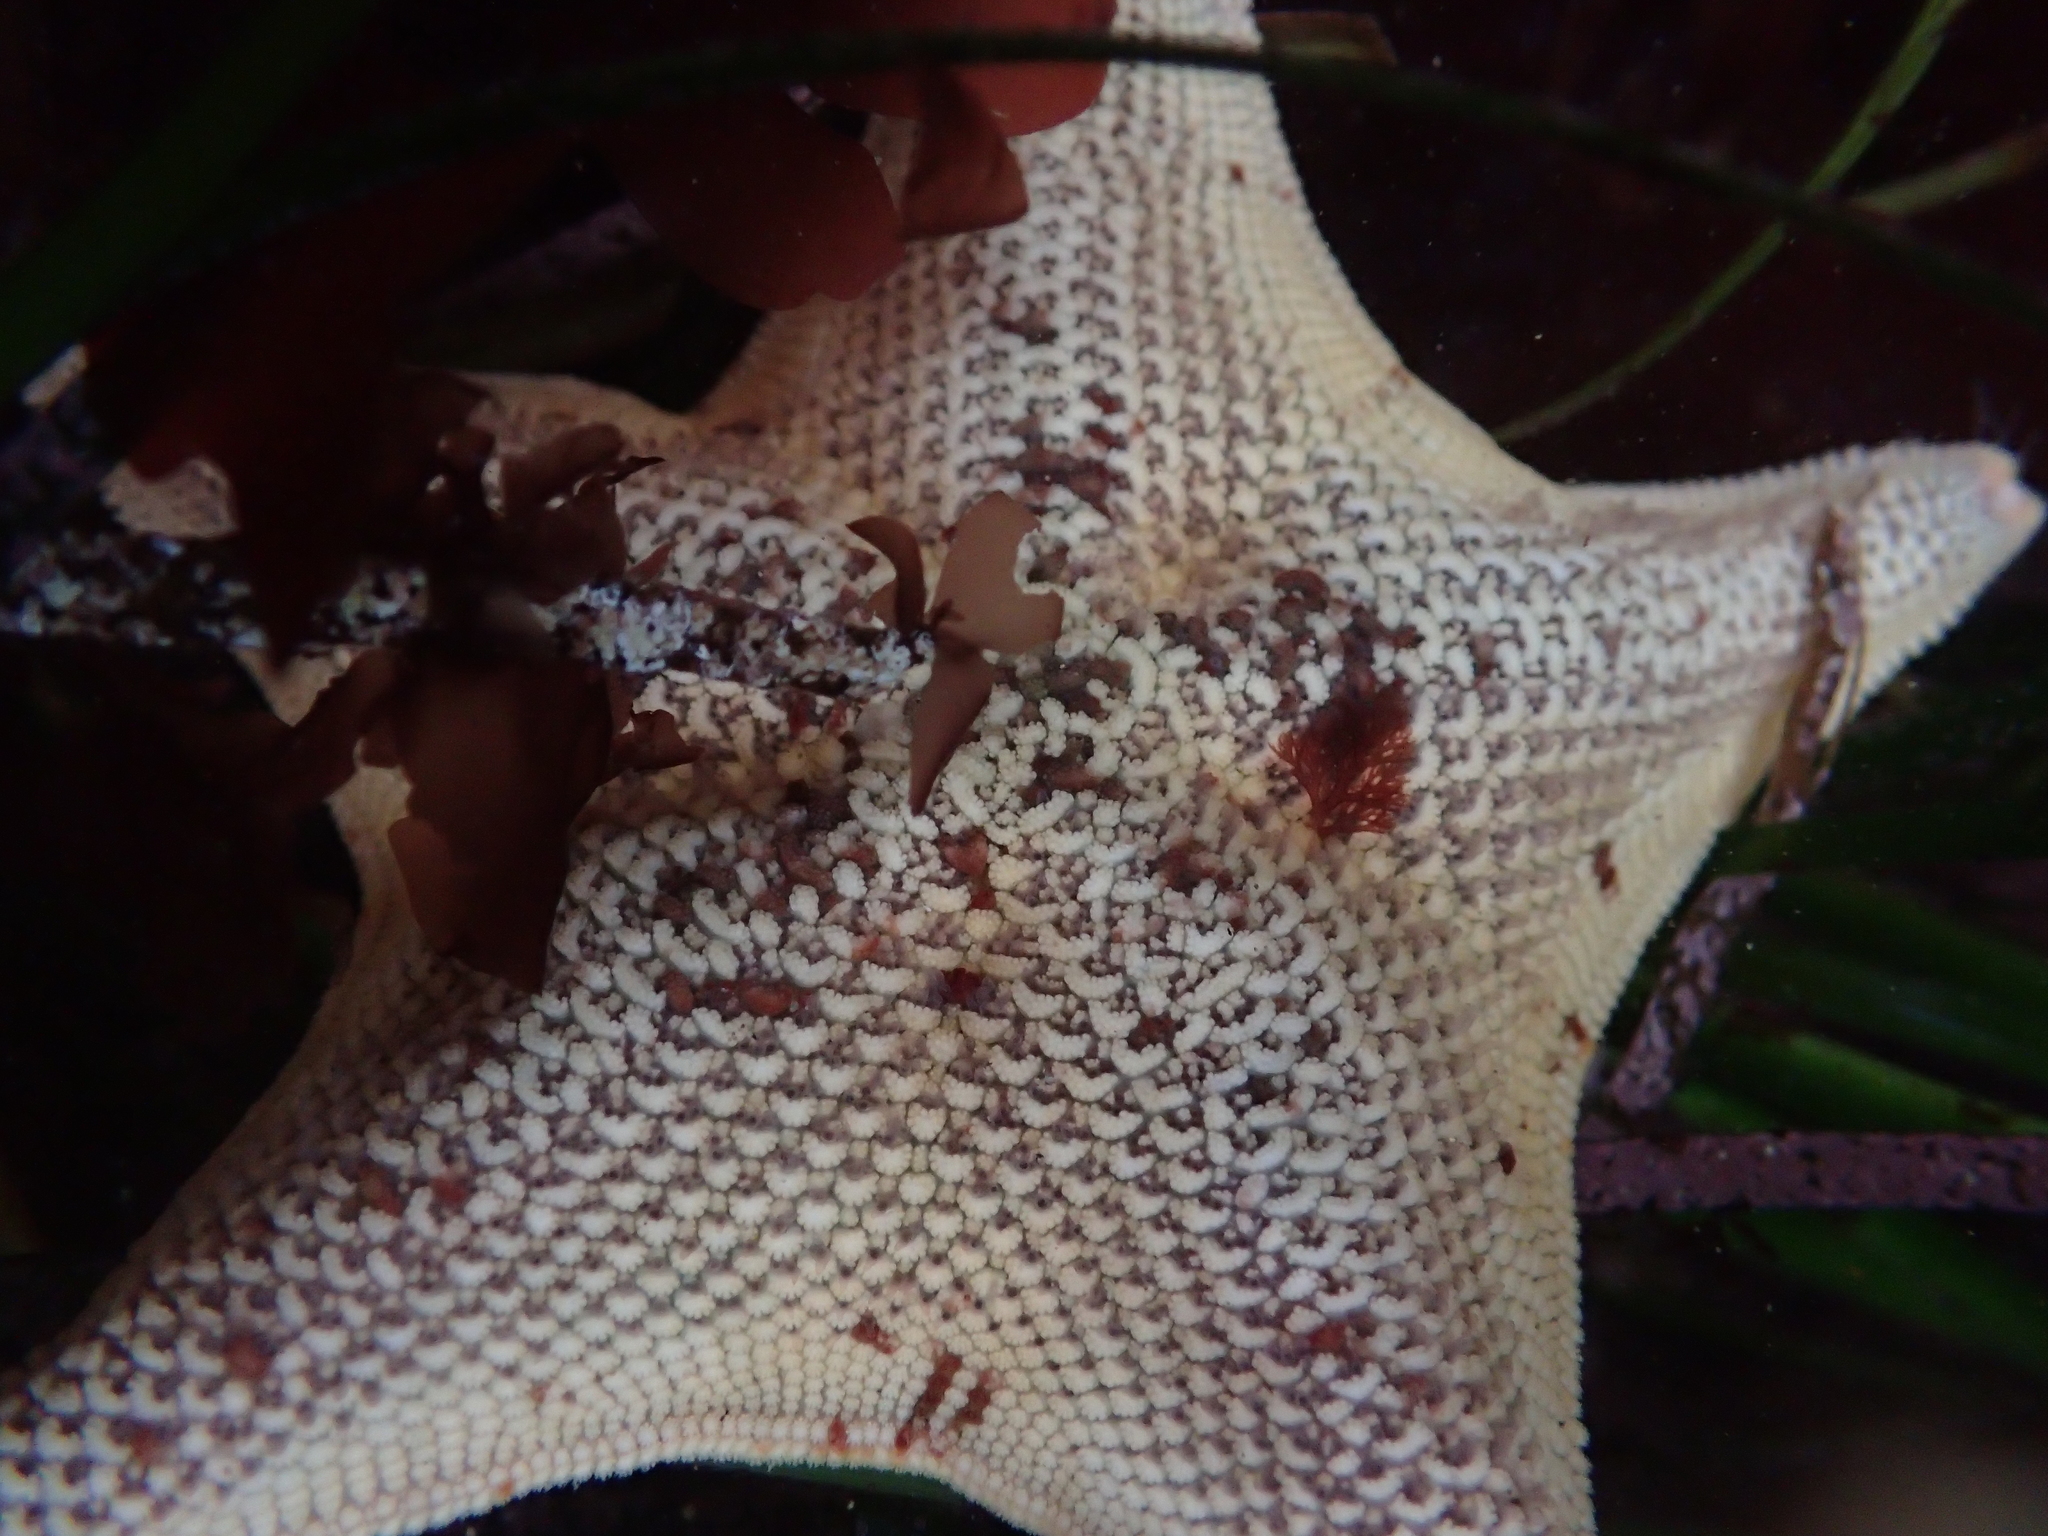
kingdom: Animalia
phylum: Echinodermata
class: Asteroidea
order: Valvatida
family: Asterinidae
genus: Patiria
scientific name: Patiria miniata
